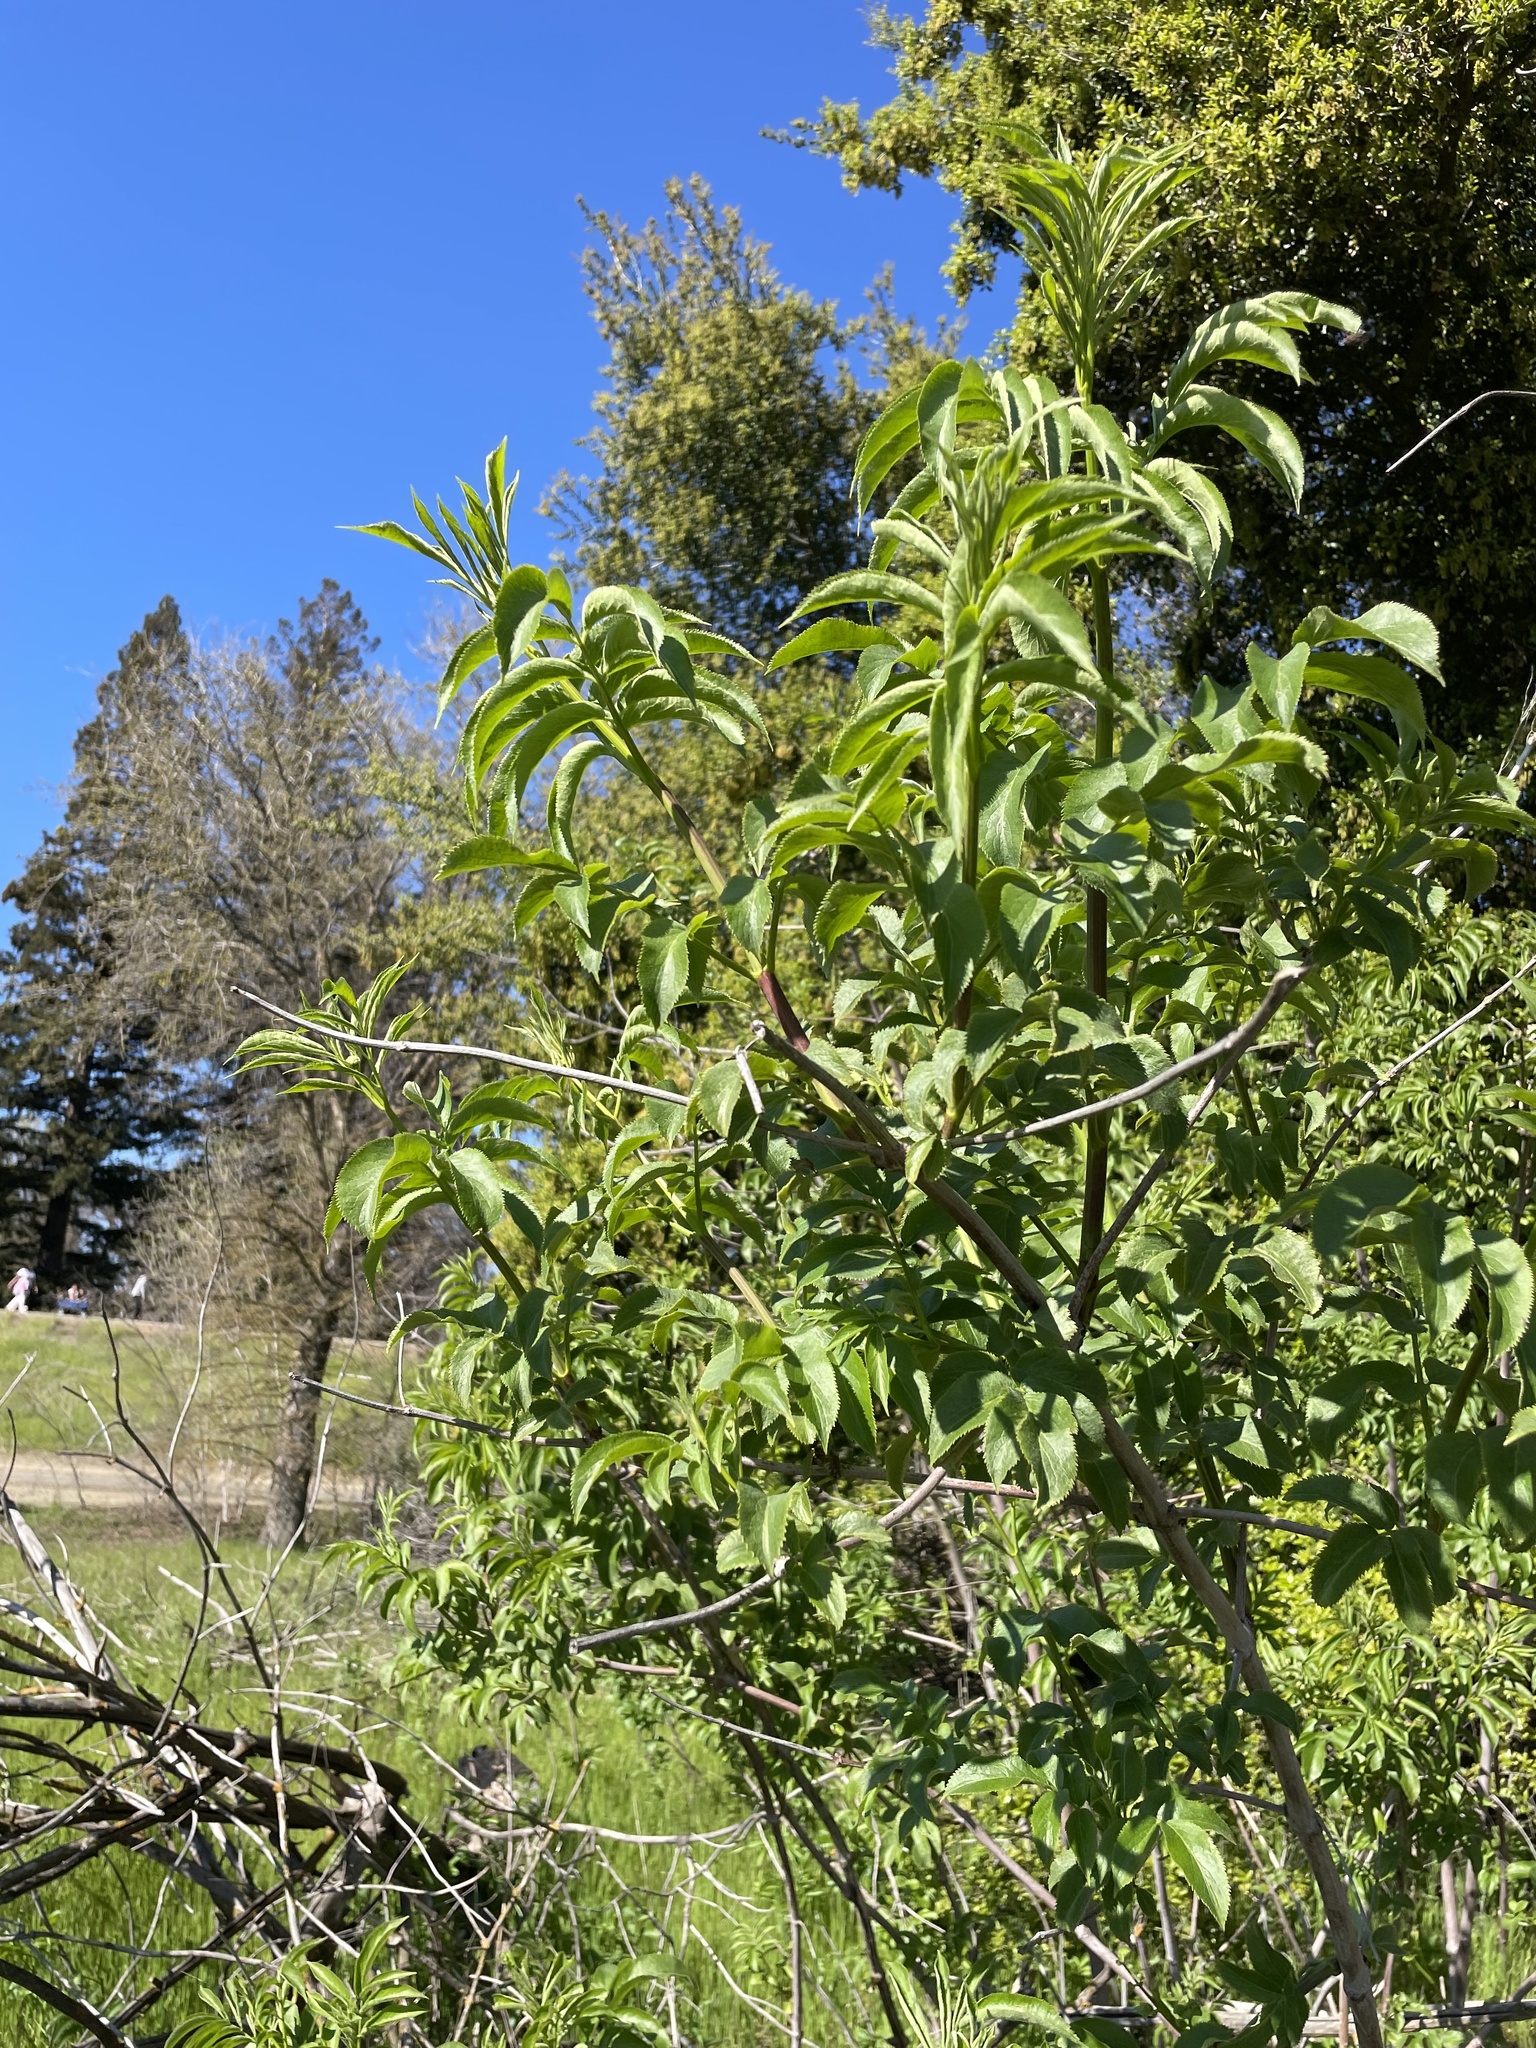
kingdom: Plantae
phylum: Tracheophyta
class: Magnoliopsida
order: Dipsacales
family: Viburnaceae
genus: Sambucus
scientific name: Sambucus cerulea
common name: Blue elder
